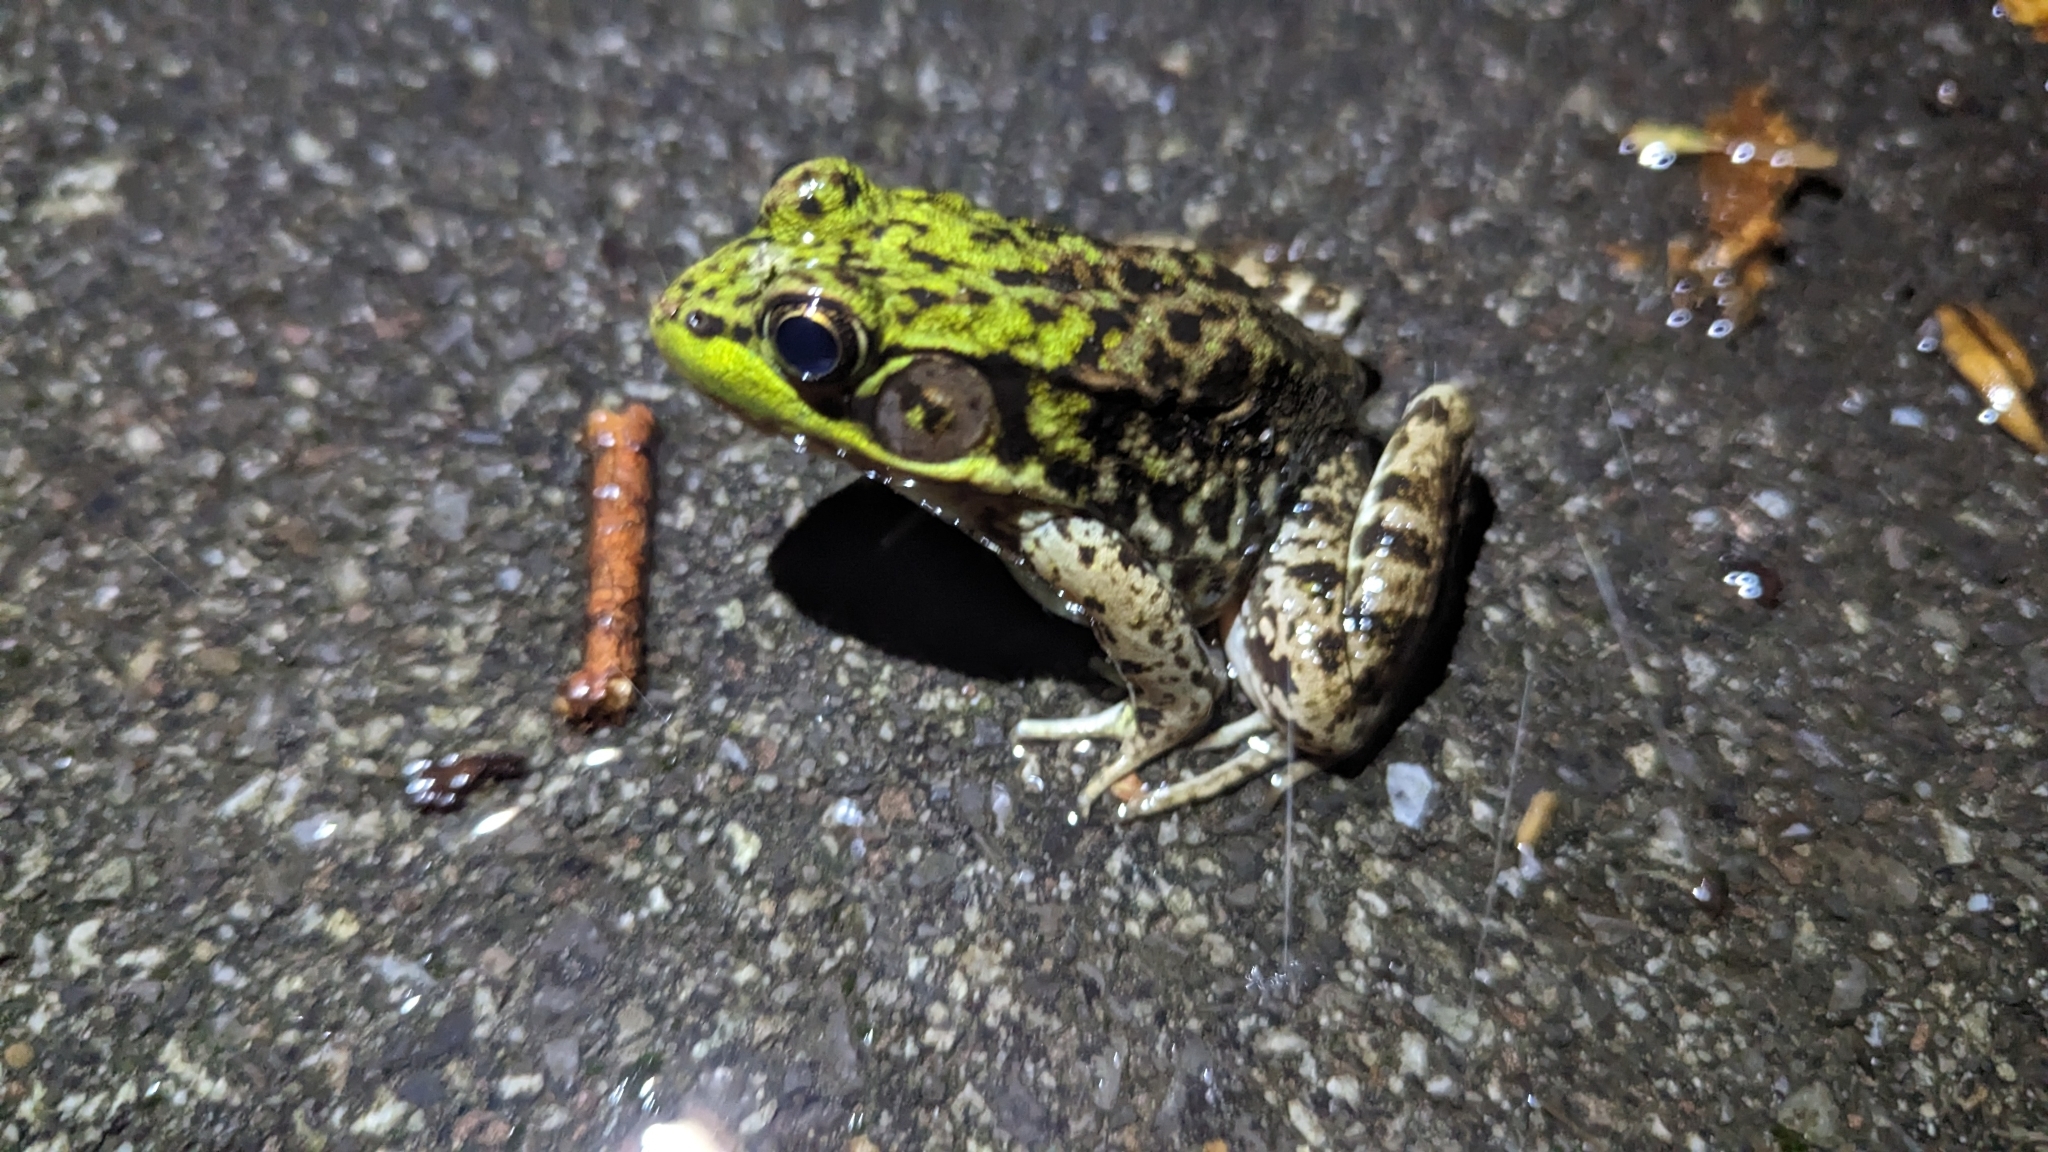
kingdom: Animalia
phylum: Chordata
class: Amphibia
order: Anura
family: Ranidae
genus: Lithobates
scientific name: Lithobates clamitans
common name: Green frog
